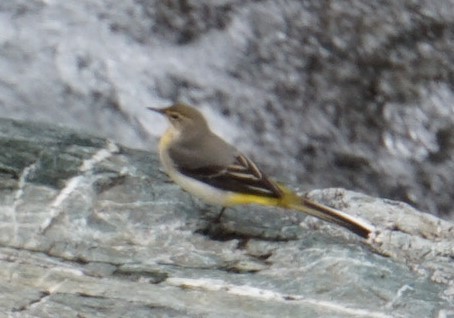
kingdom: Animalia
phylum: Chordata
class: Aves
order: Passeriformes
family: Motacillidae
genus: Motacilla
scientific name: Motacilla cinerea
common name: Grey wagtail
